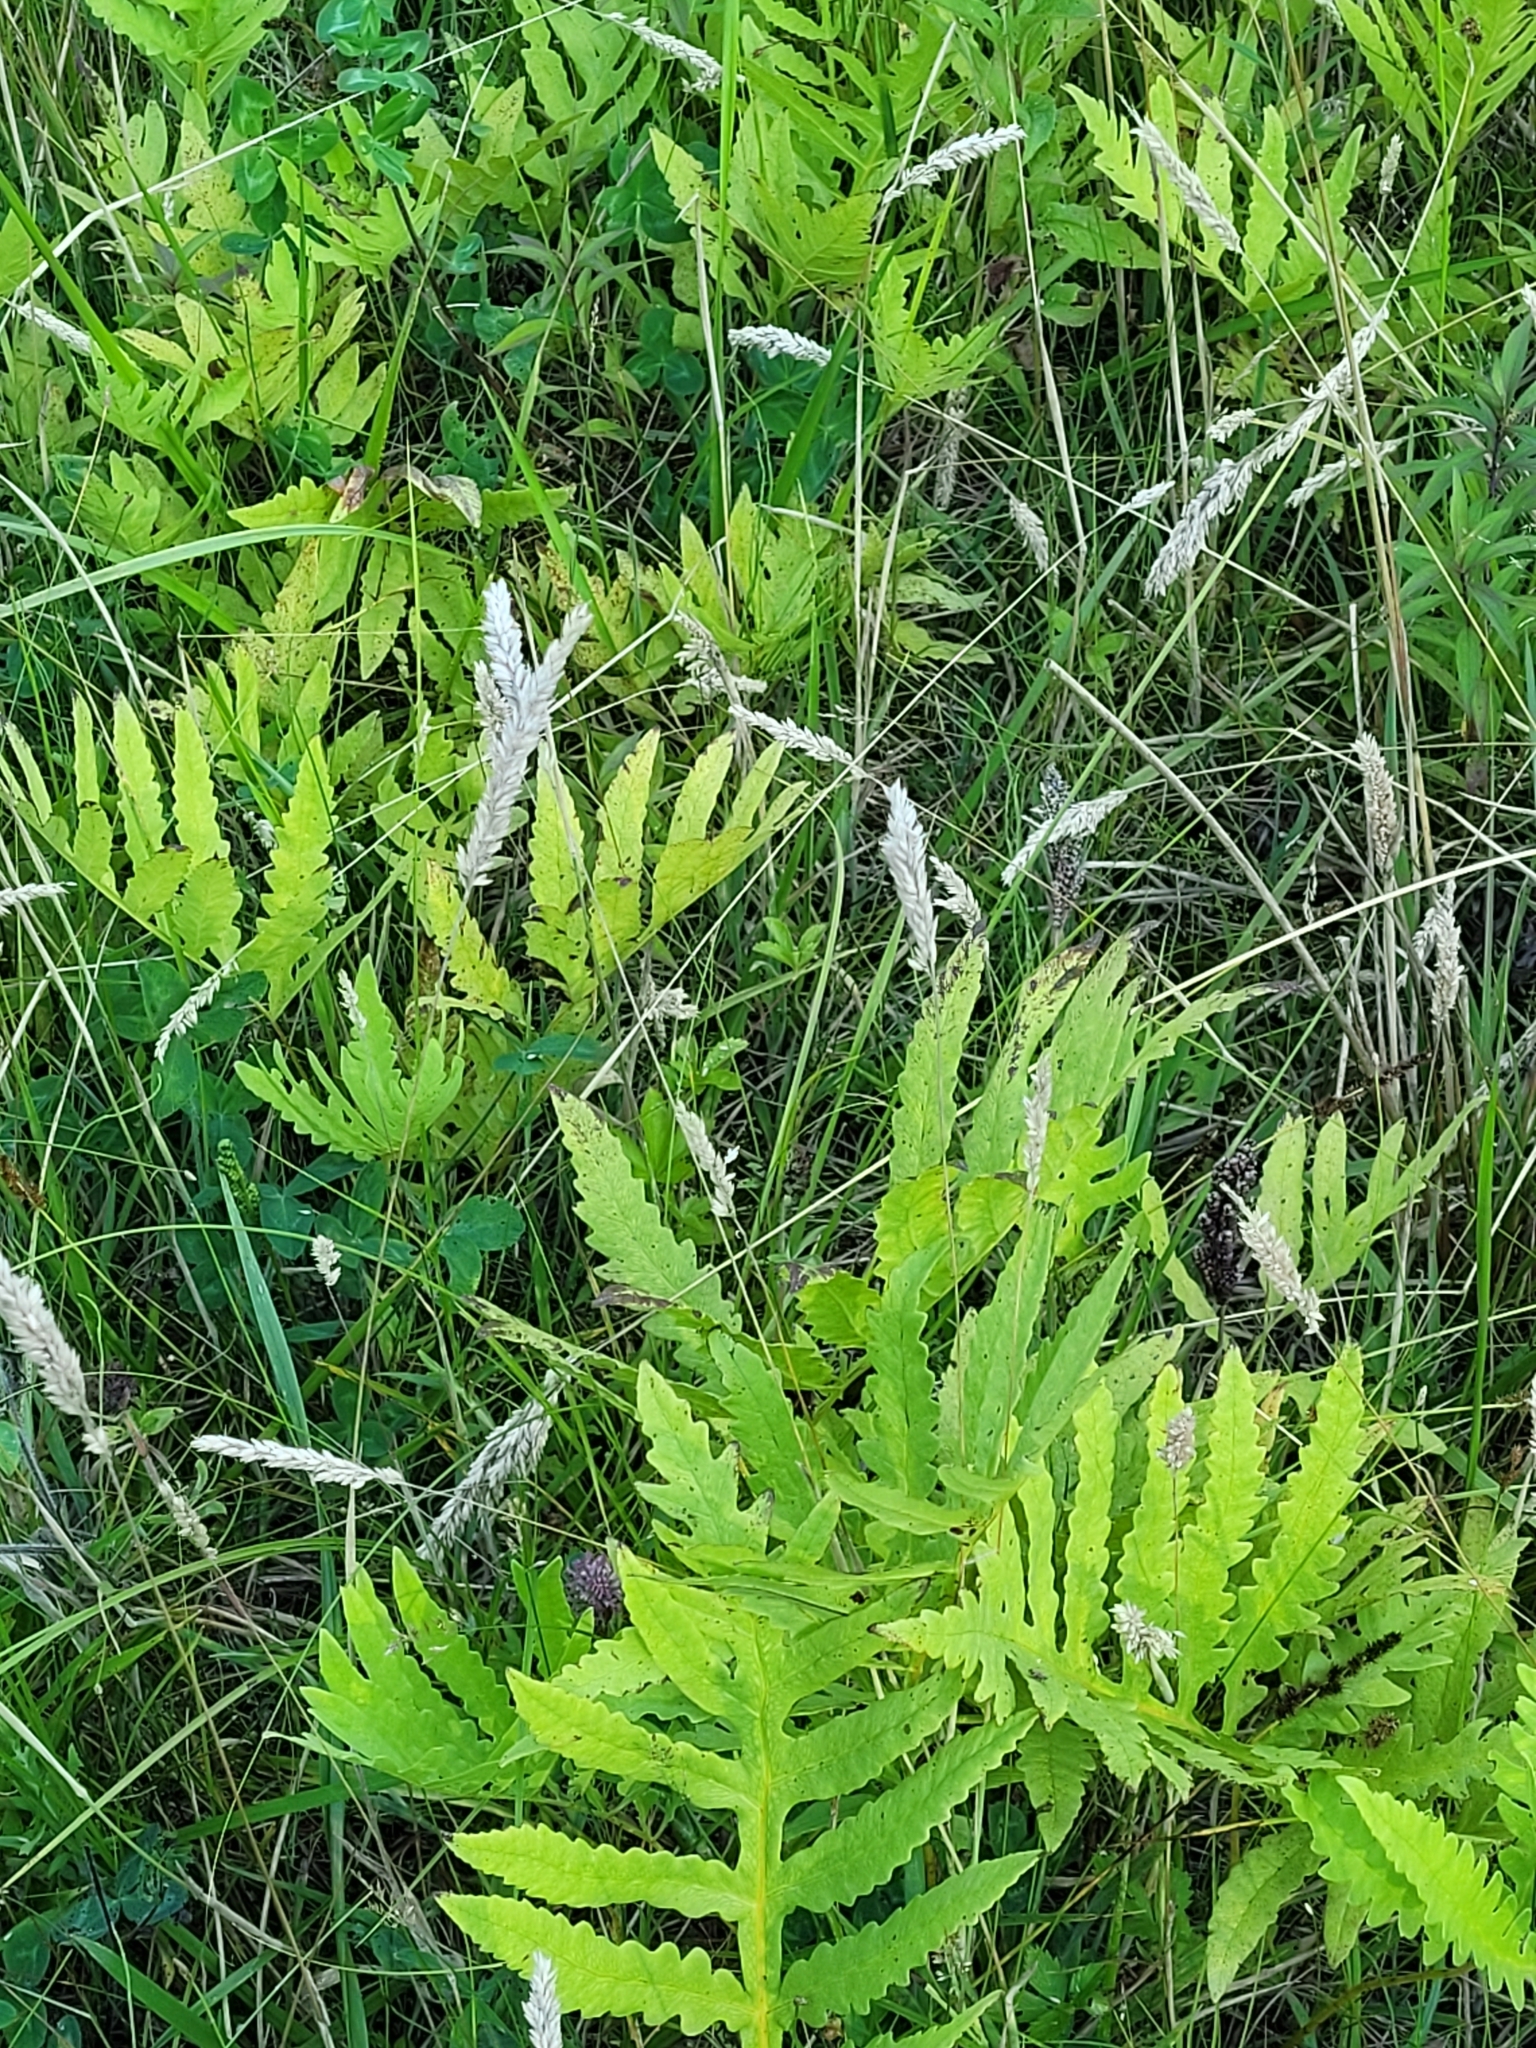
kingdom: Plantae
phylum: Tracheophyta
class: Polypodiopsida
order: Polypodiales
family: Onocleaceae
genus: Onoclea
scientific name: Onoclea sensibilis
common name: Sensitive fern
